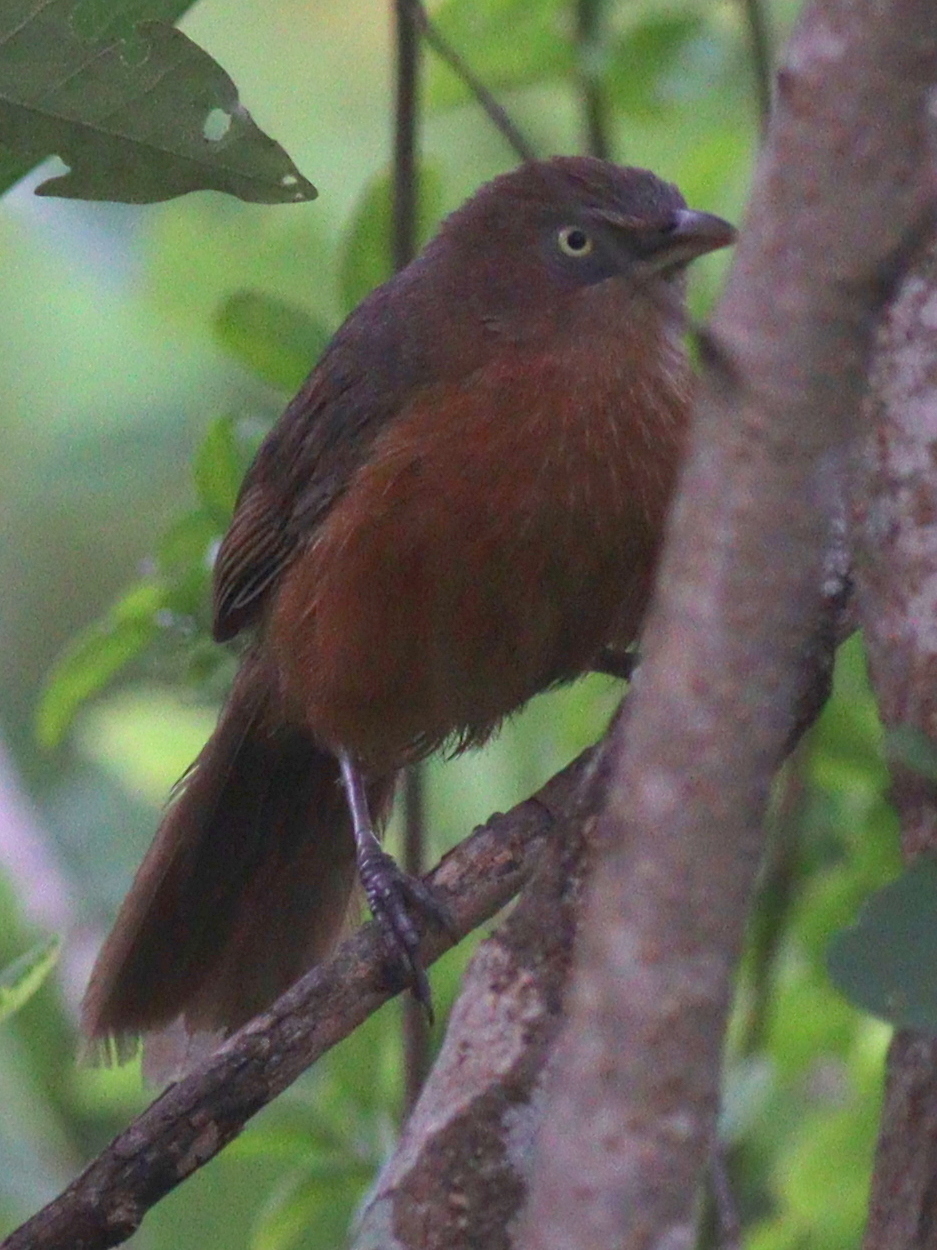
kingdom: Animalia
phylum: Chordata
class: Aves
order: Passeriformes
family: Leiothrichidae
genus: Turdoides
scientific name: Turdoides rubiginosa
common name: Rufous chatterer
